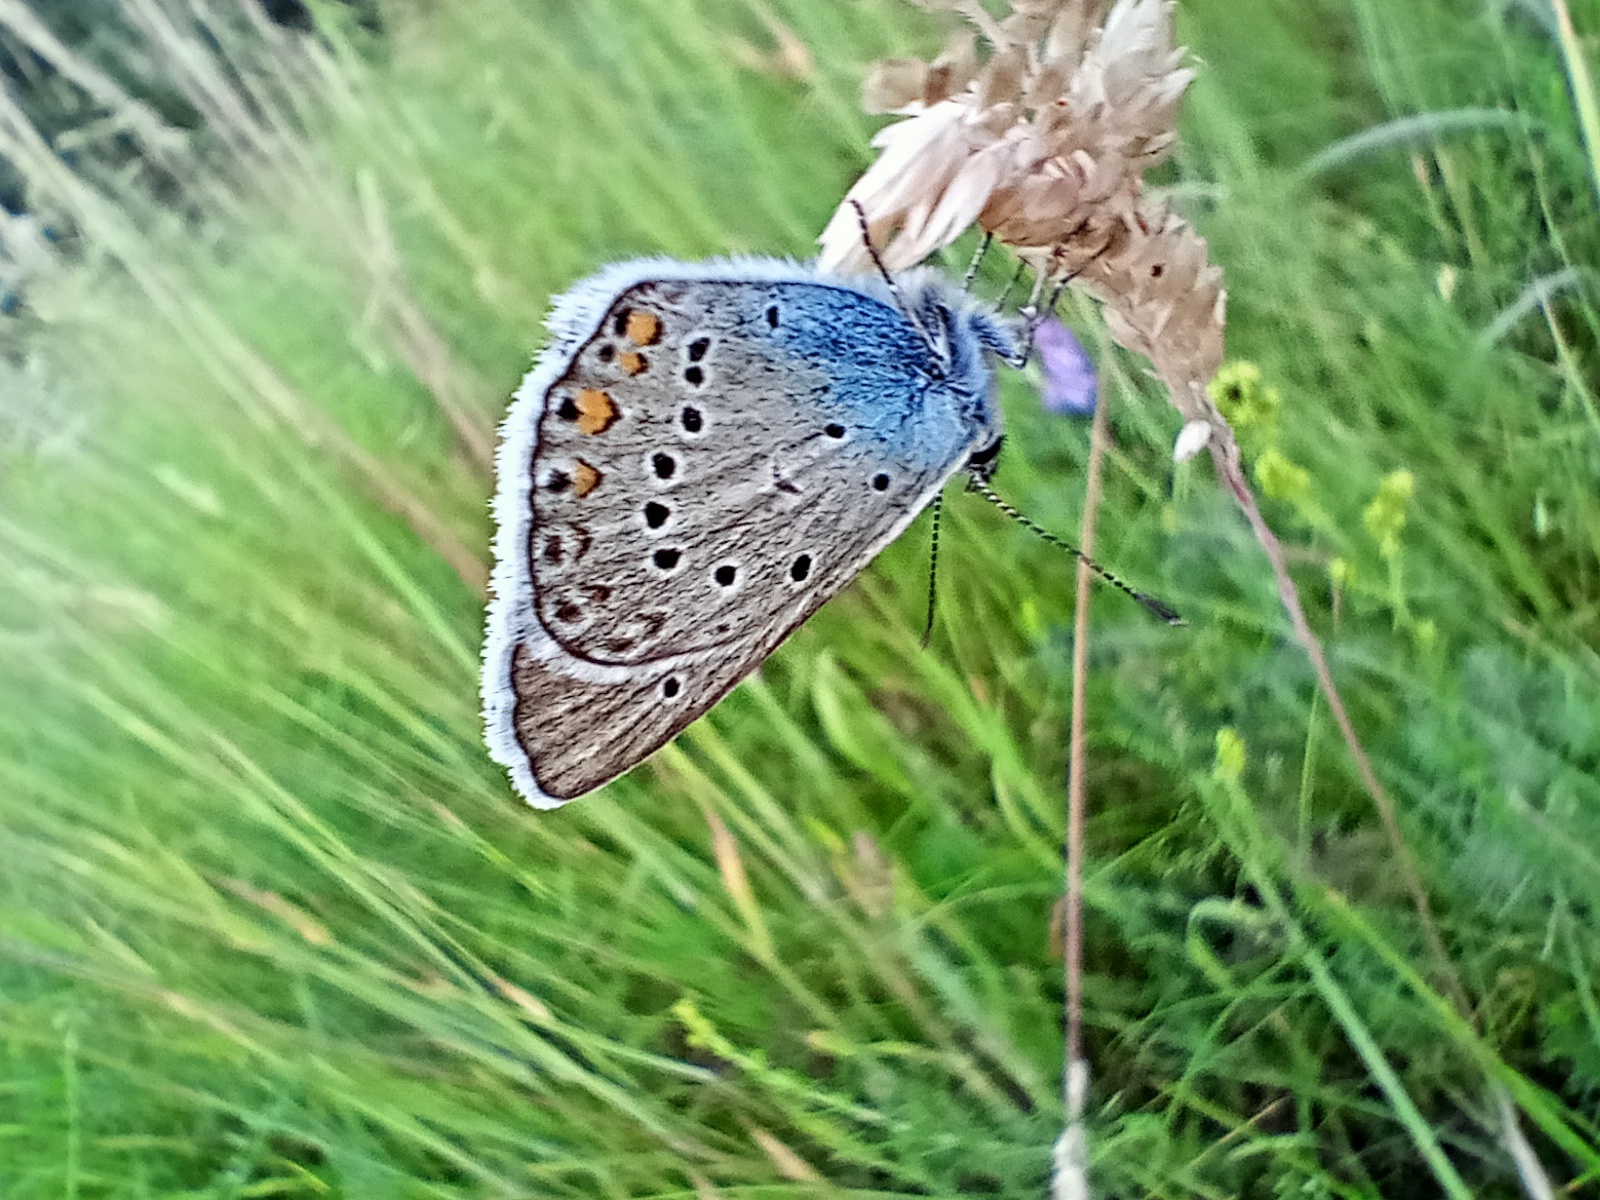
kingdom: Animalia
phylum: Arthropoda
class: Insecta
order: Lepidoptera
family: Lycaenidae
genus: Plebejus
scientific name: Plebejus amanda
